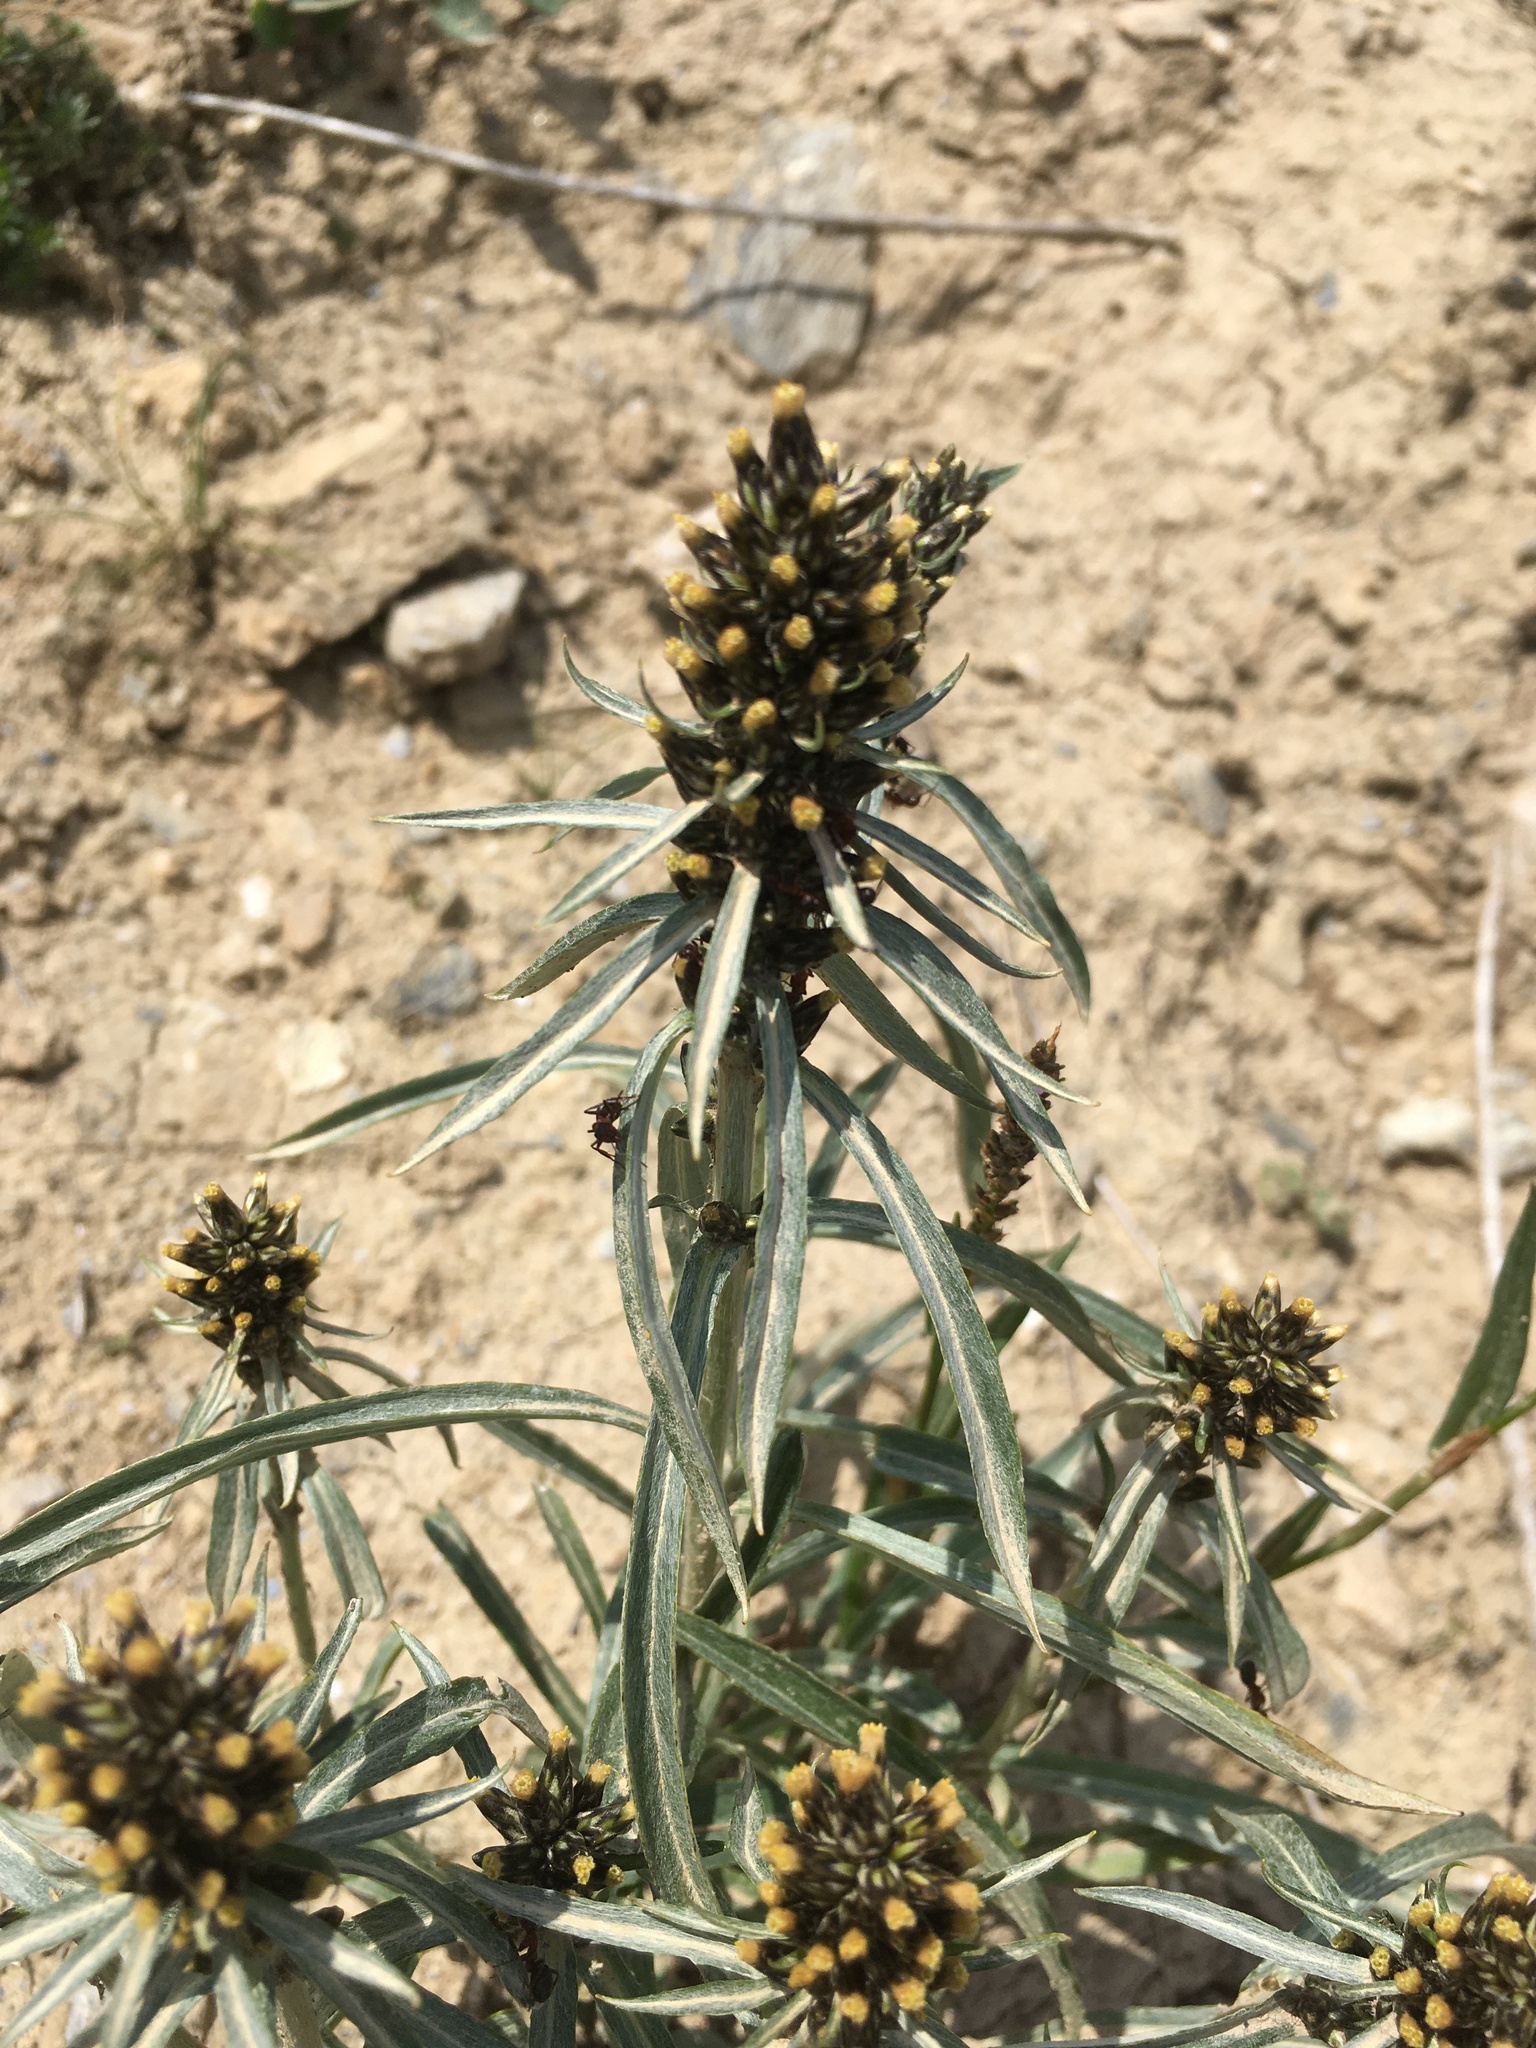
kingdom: Plantae
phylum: Tracheophyta
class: Magnoliopsida
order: Asterales
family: Asteraceae
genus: Omalotheca
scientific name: Omalotheca norvegica
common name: Norwegian arctic-cudweed
